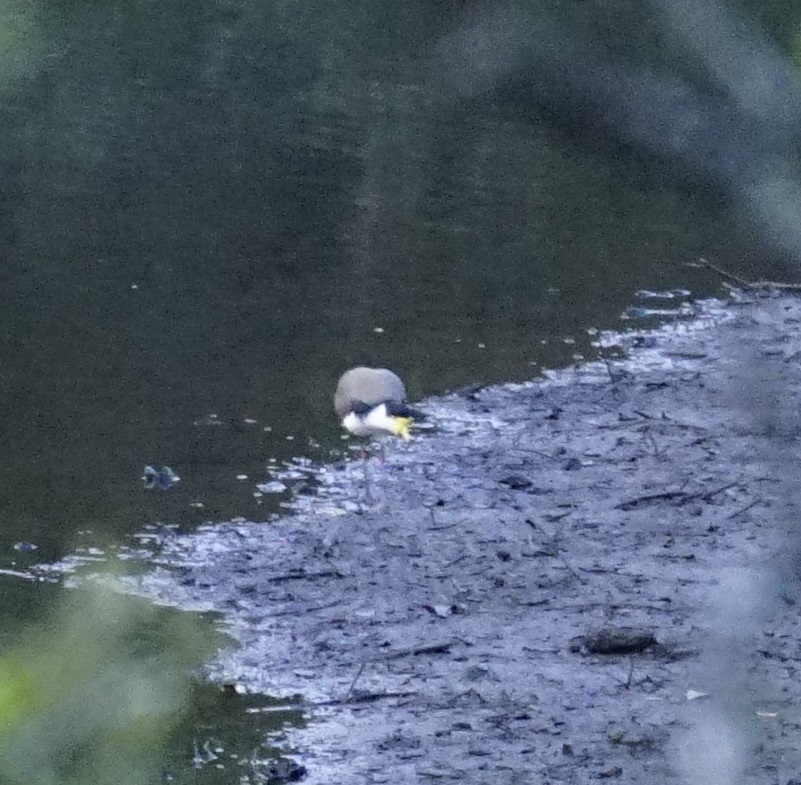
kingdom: Animalia
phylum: Chordata
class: Aves
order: Charadriiformes
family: Charadriidae
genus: Vanellus
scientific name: Vanellus miles
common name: Masked lapwing
